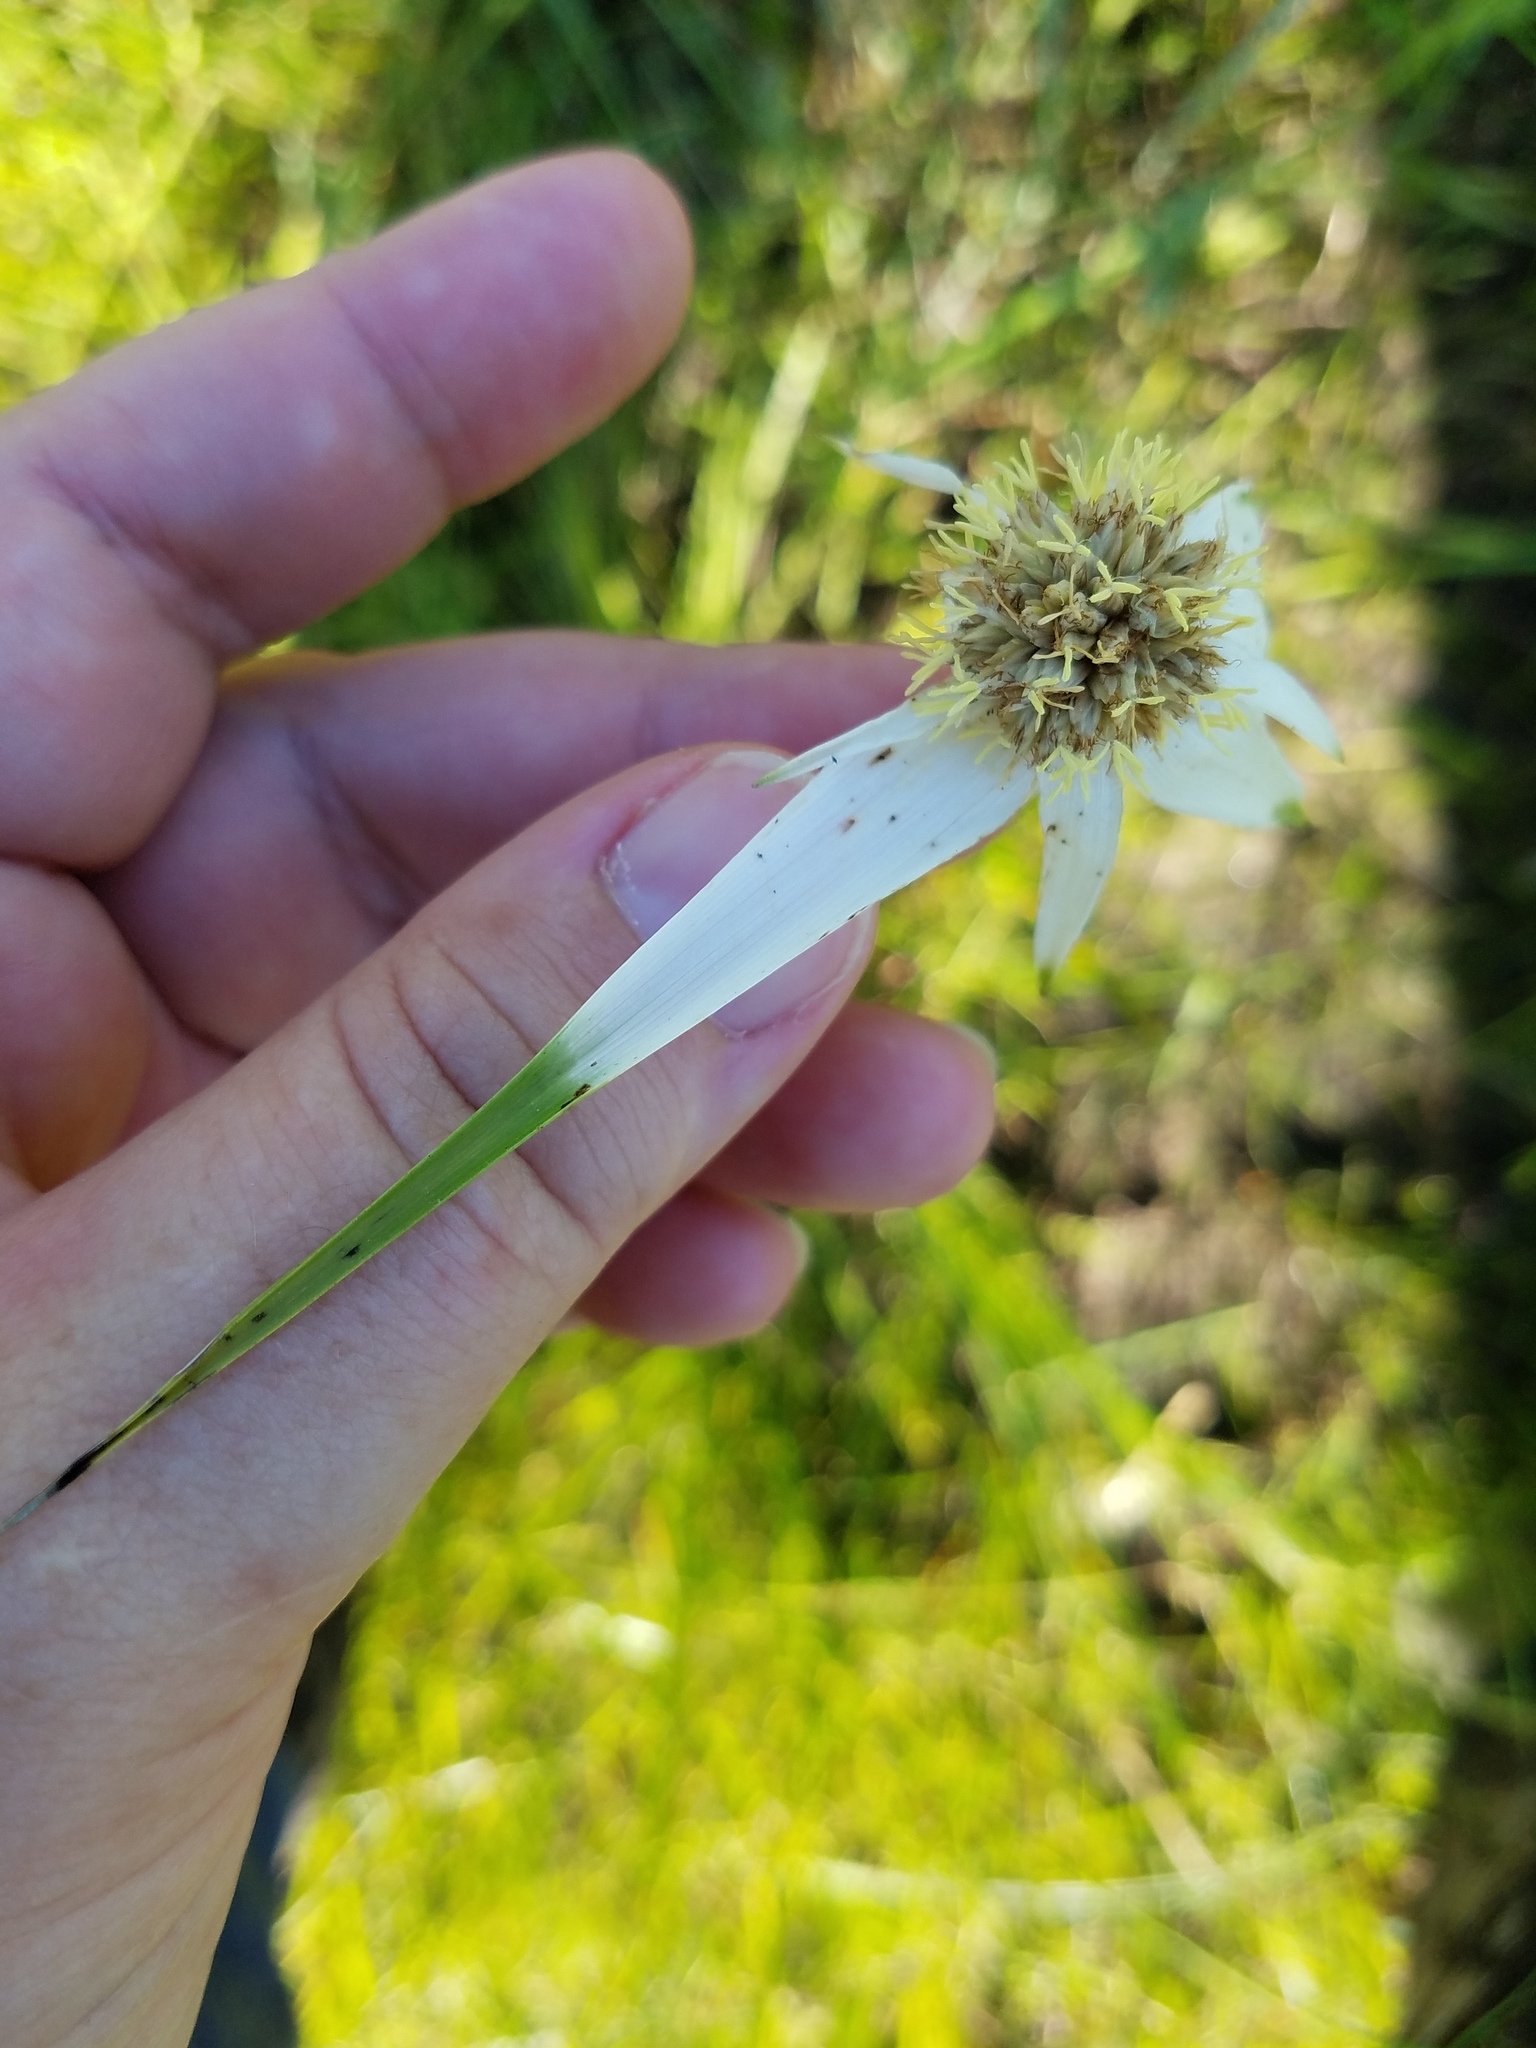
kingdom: Plantae
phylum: Tracheophyta
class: Liliopsida
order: Poales
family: Cyperaceae
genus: Rhynchospora
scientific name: Rhynchospora latifolia
